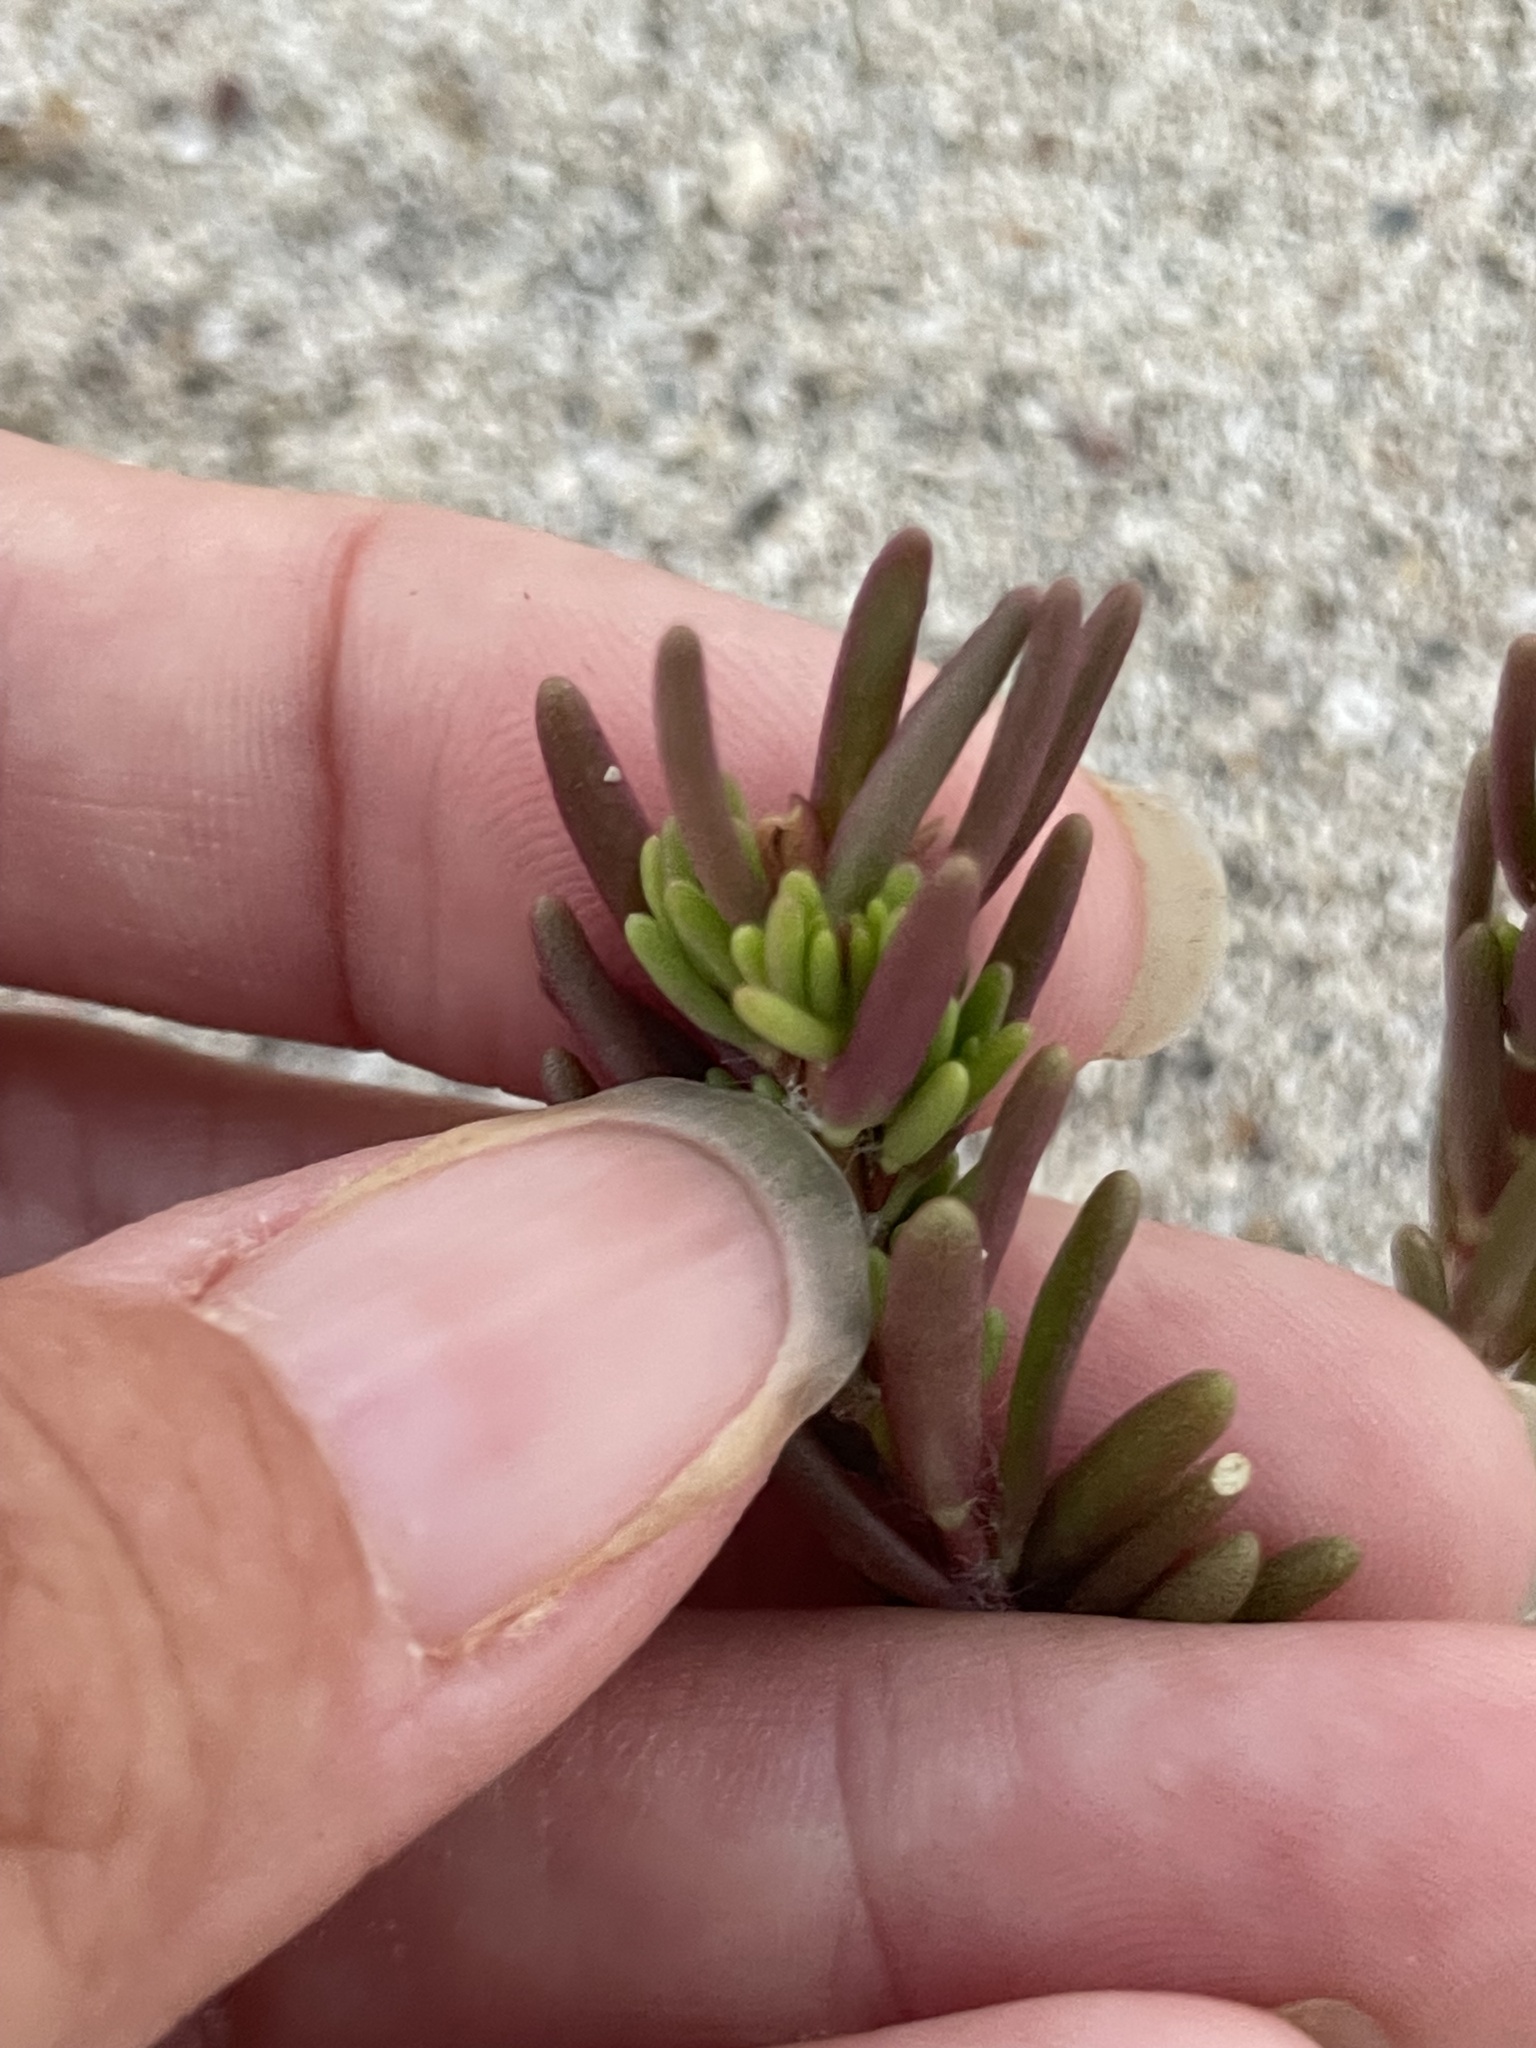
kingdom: Plantae
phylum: Tracheophyta
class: Magnoliopsida
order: Caryophyllales
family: Portulacaceae
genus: Portulaca
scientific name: Portulaca californica
